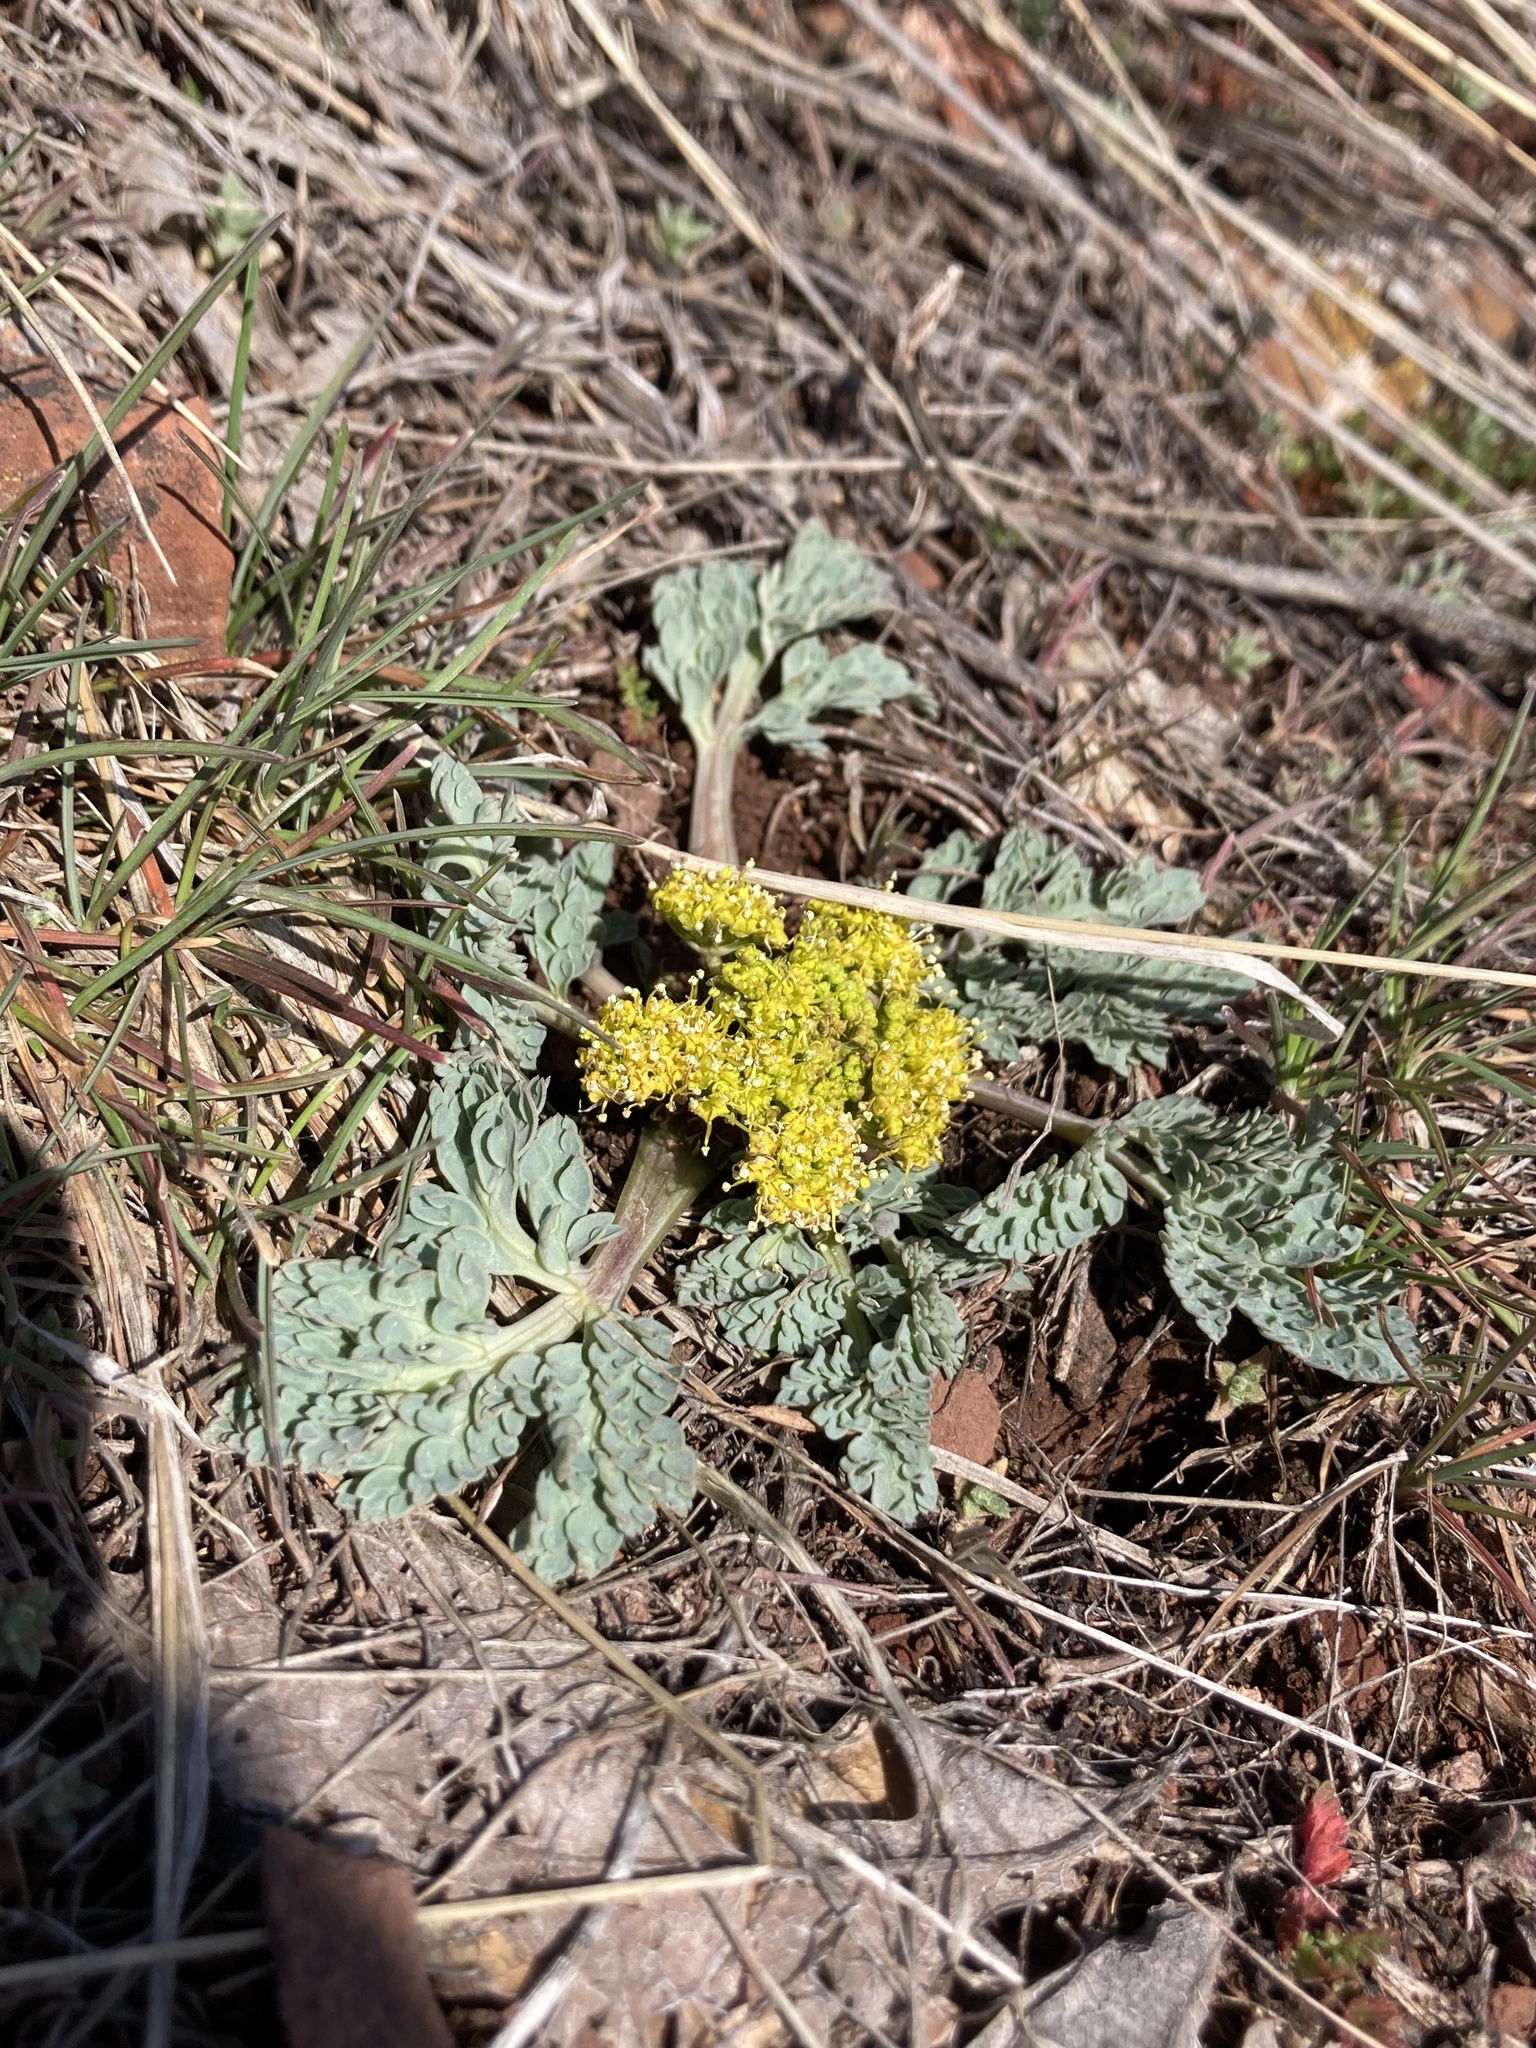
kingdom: Plantae
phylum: Tracheophyta
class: Magnoliopsida
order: Apiales
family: Apiaceae
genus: Aulospermum
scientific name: Aulospermum longipes
